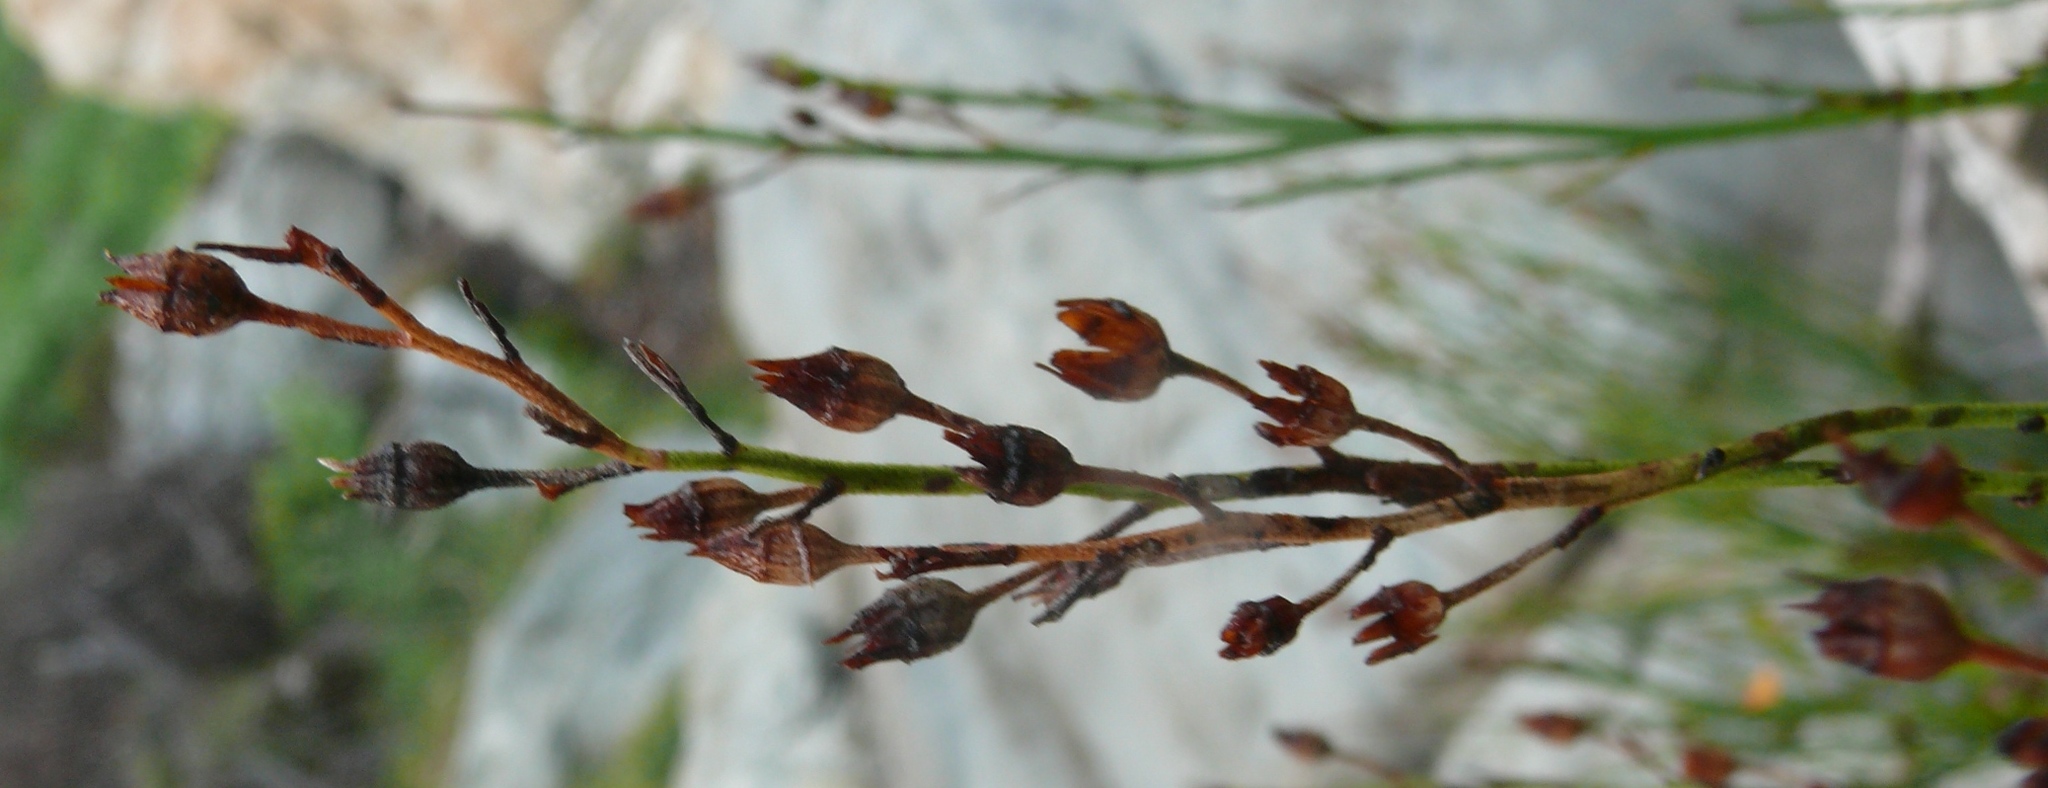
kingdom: Plantae
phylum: Tracheophyta
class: Magnoliopsida
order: Ericales
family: Primulaceae
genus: Samolus
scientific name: Samolus porosus
